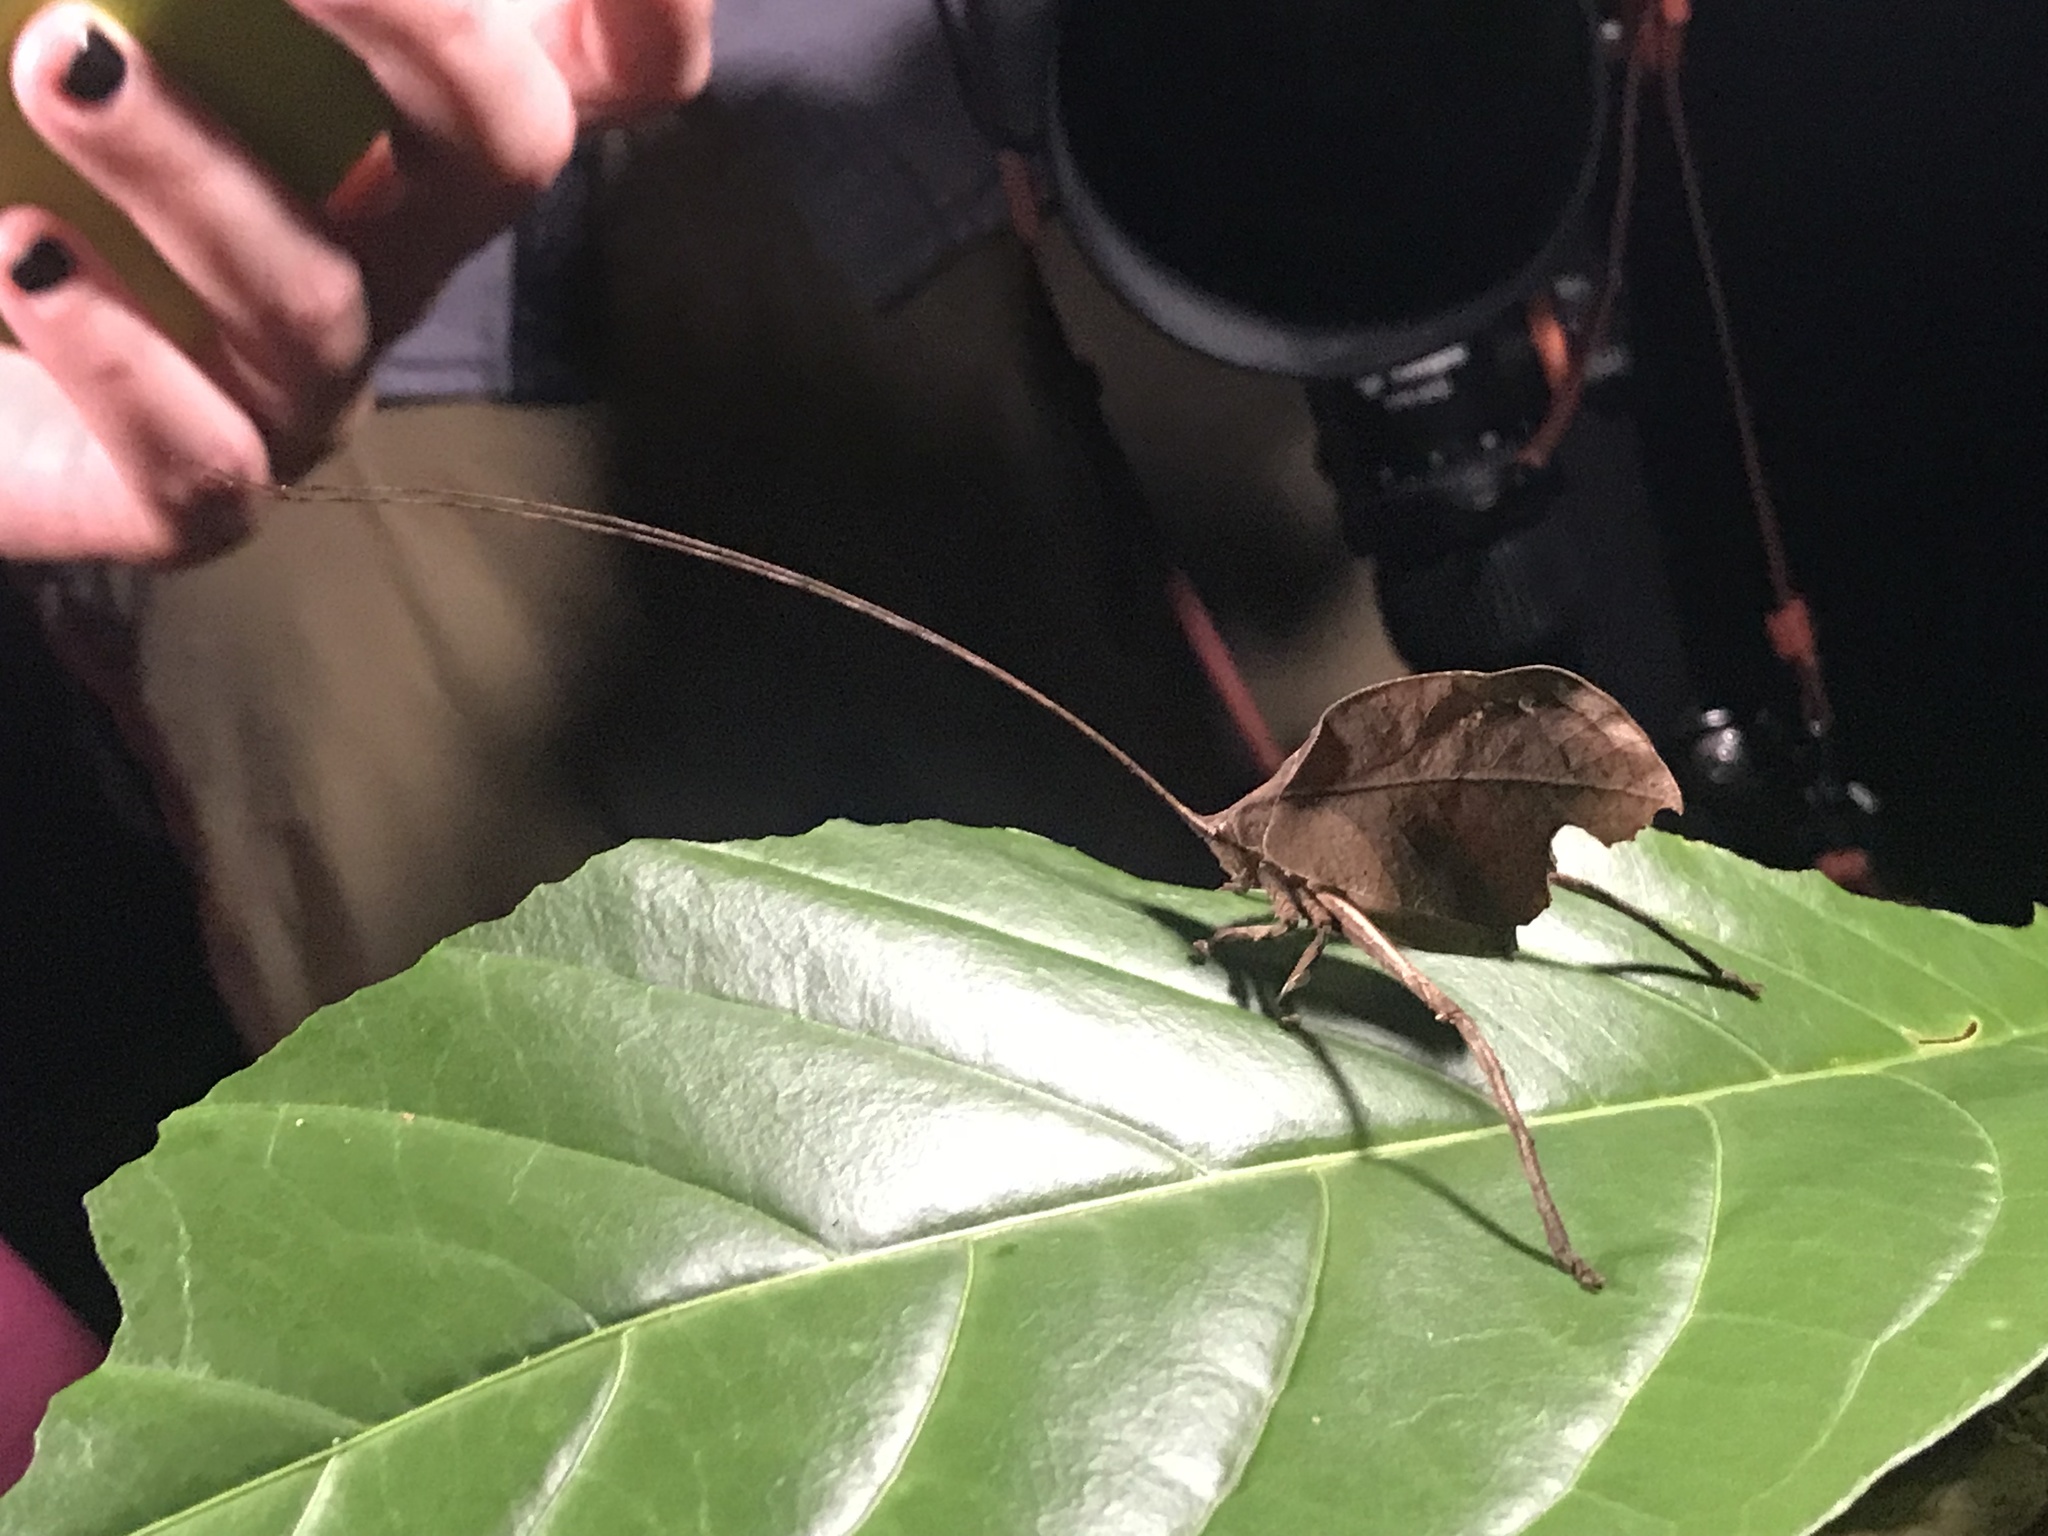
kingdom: Animalia
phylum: Arthropoda
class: Insecta
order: Orthoptera
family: Tettigoniidae
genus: Mimetica
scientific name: Mimetica incisa
